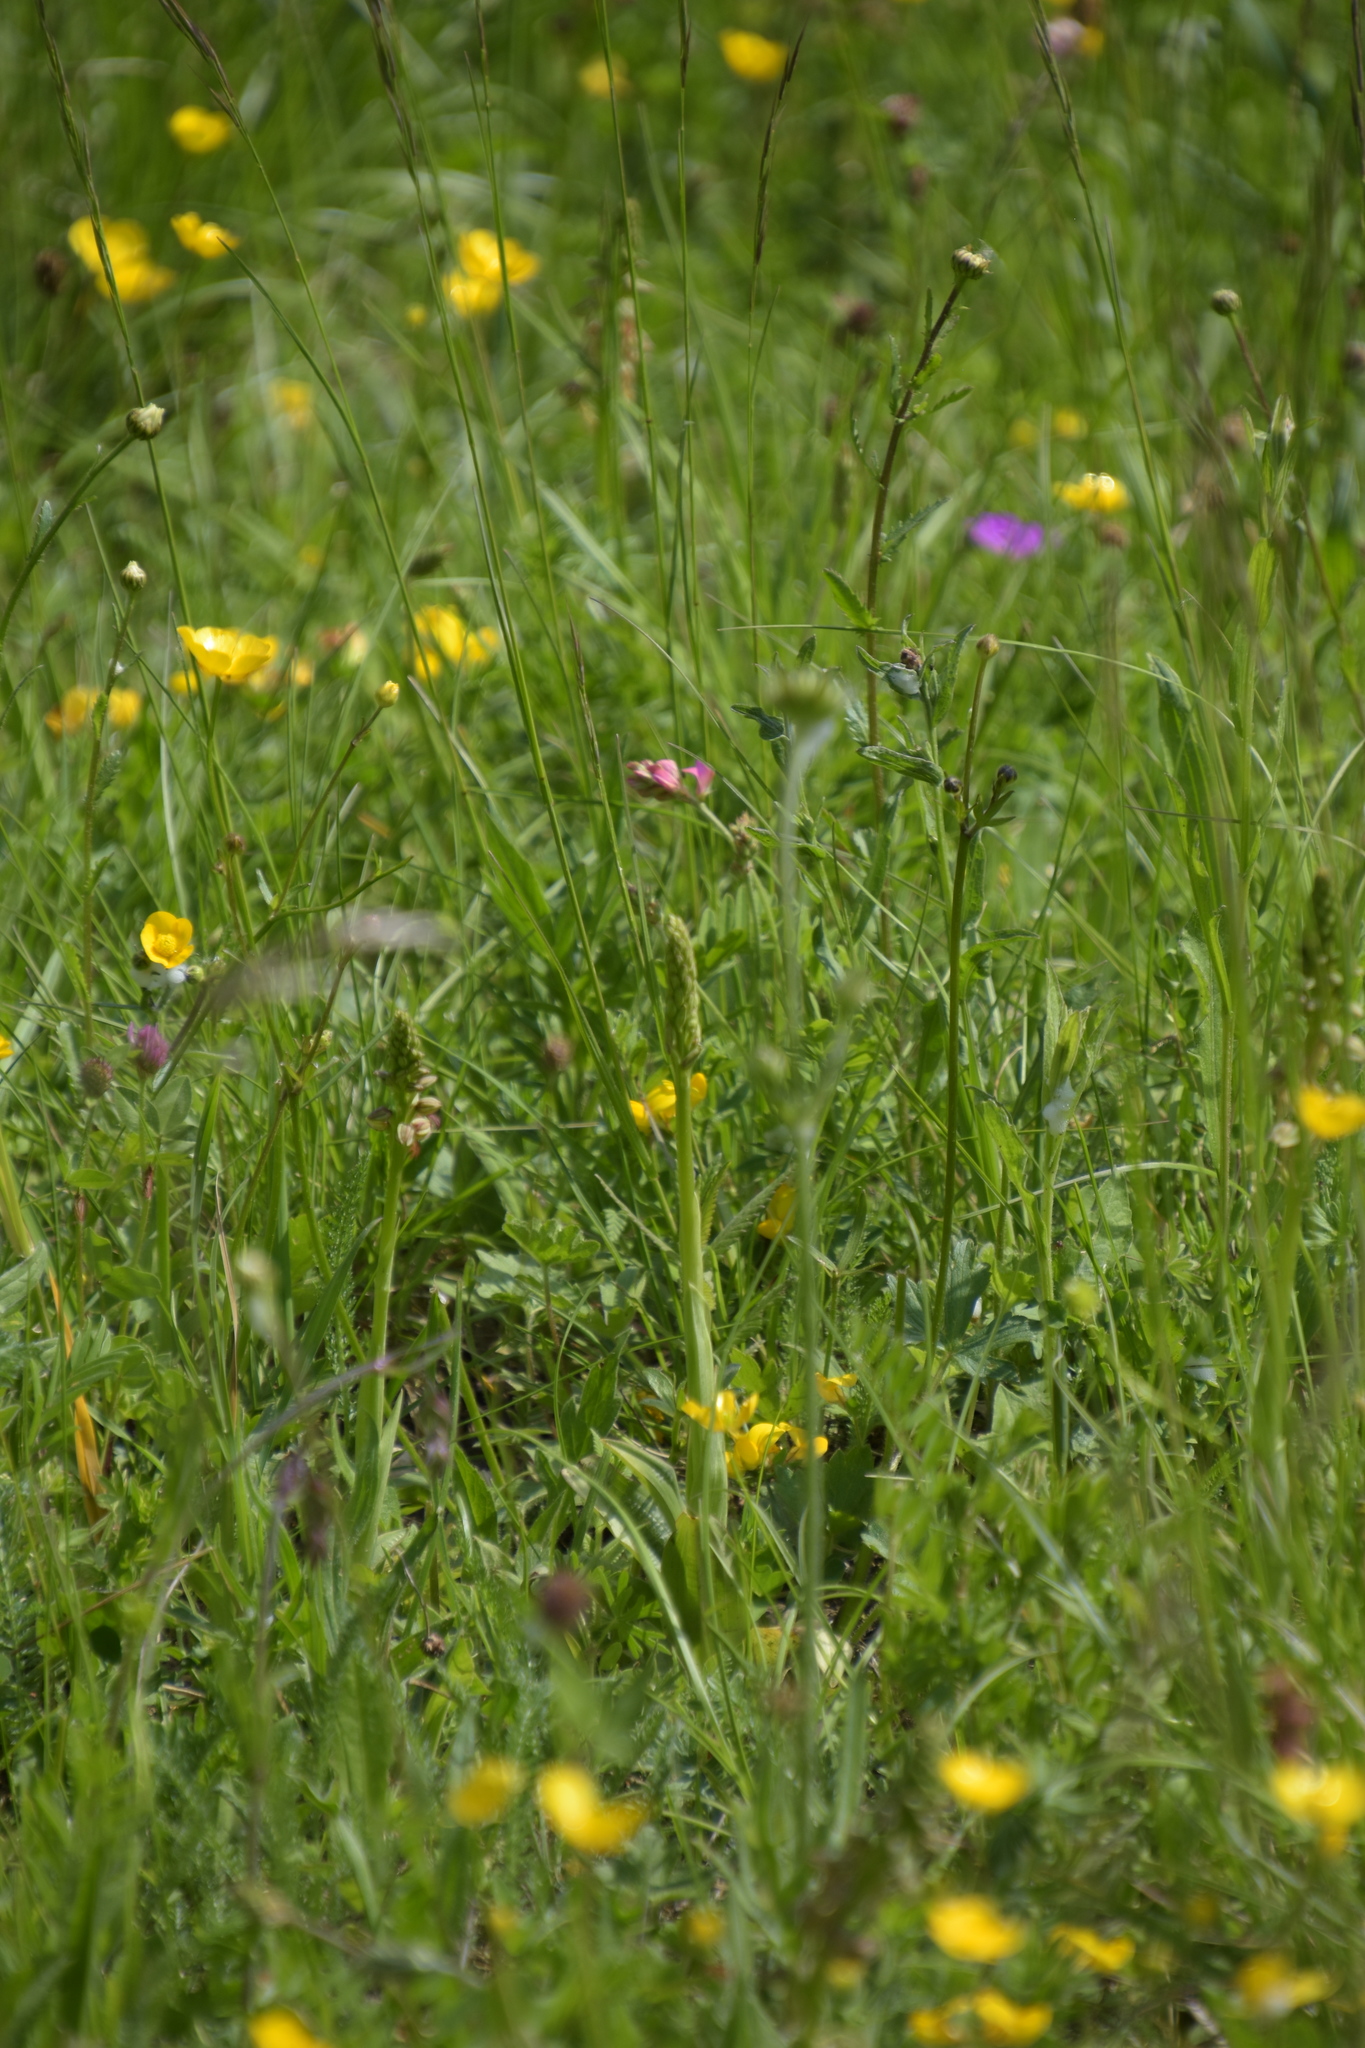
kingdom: Plantae
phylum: Tracheophyta
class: Liliopsida
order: Asparagales
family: Orchidaceae
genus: Orchis
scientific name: Orchis anthropophora
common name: Man orchid
